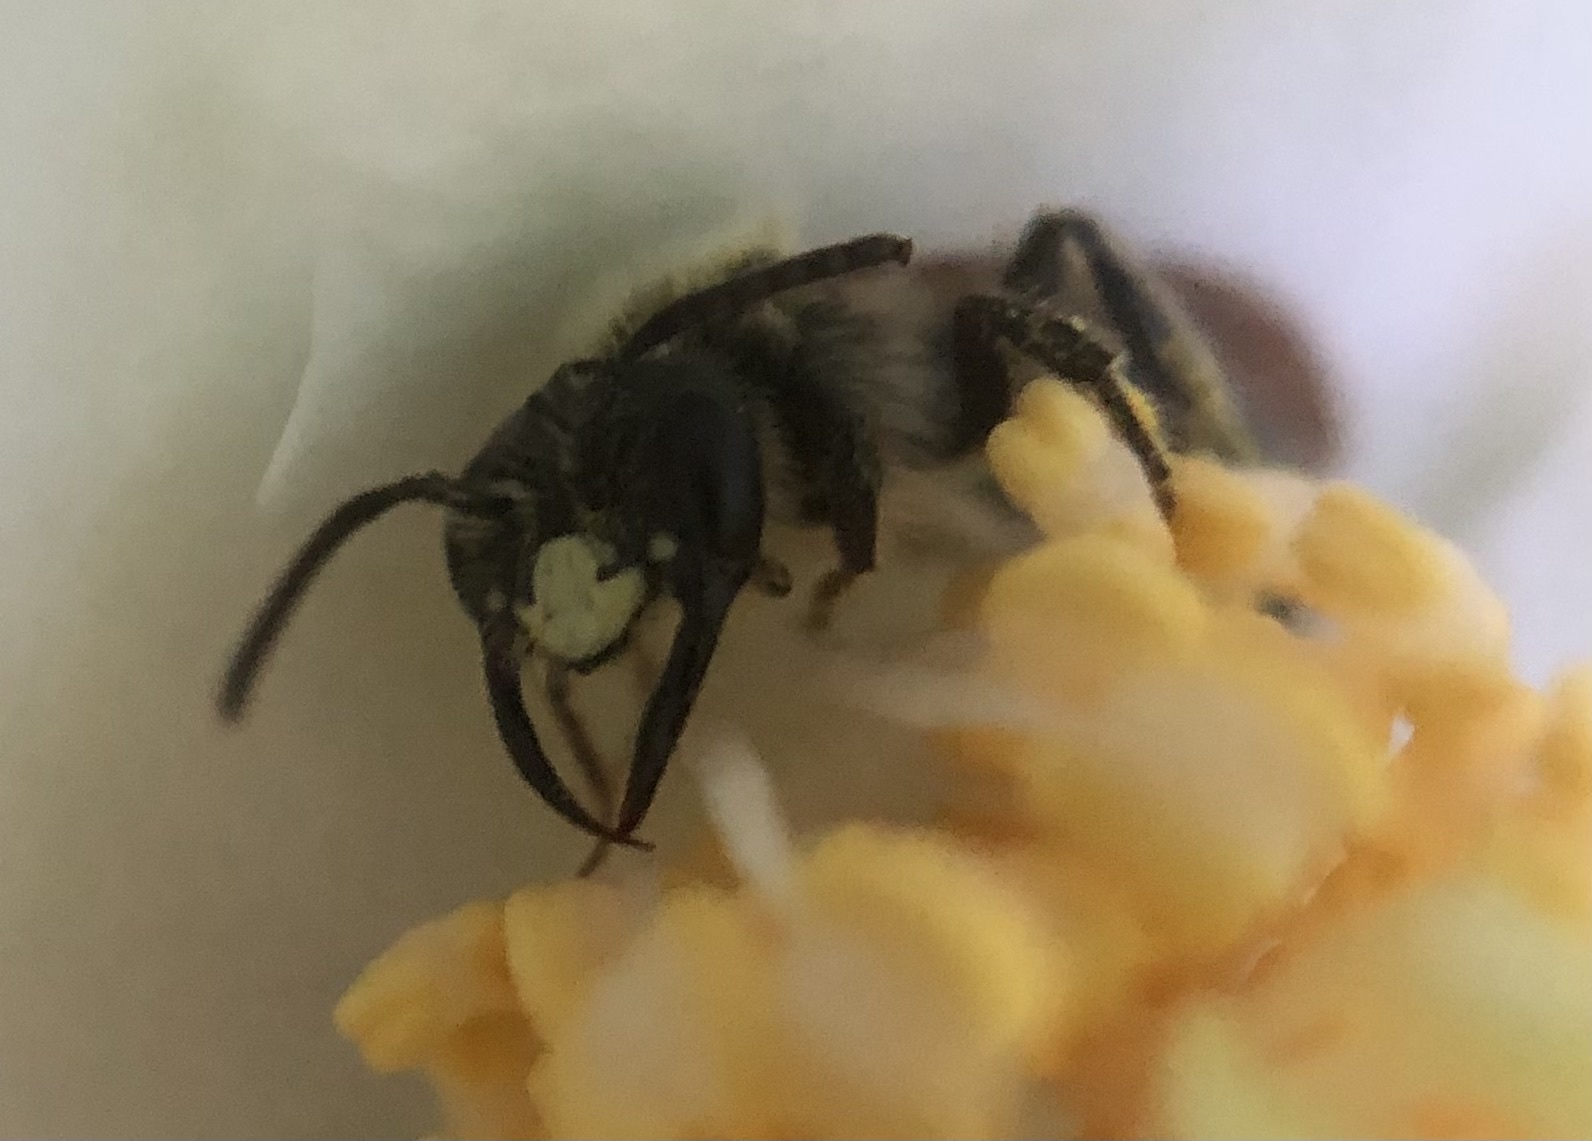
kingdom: Animalia
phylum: Arthropoda
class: Insecta
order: Hymenoptera
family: Andrenidae
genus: Andrena
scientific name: Andrena cerebrata
